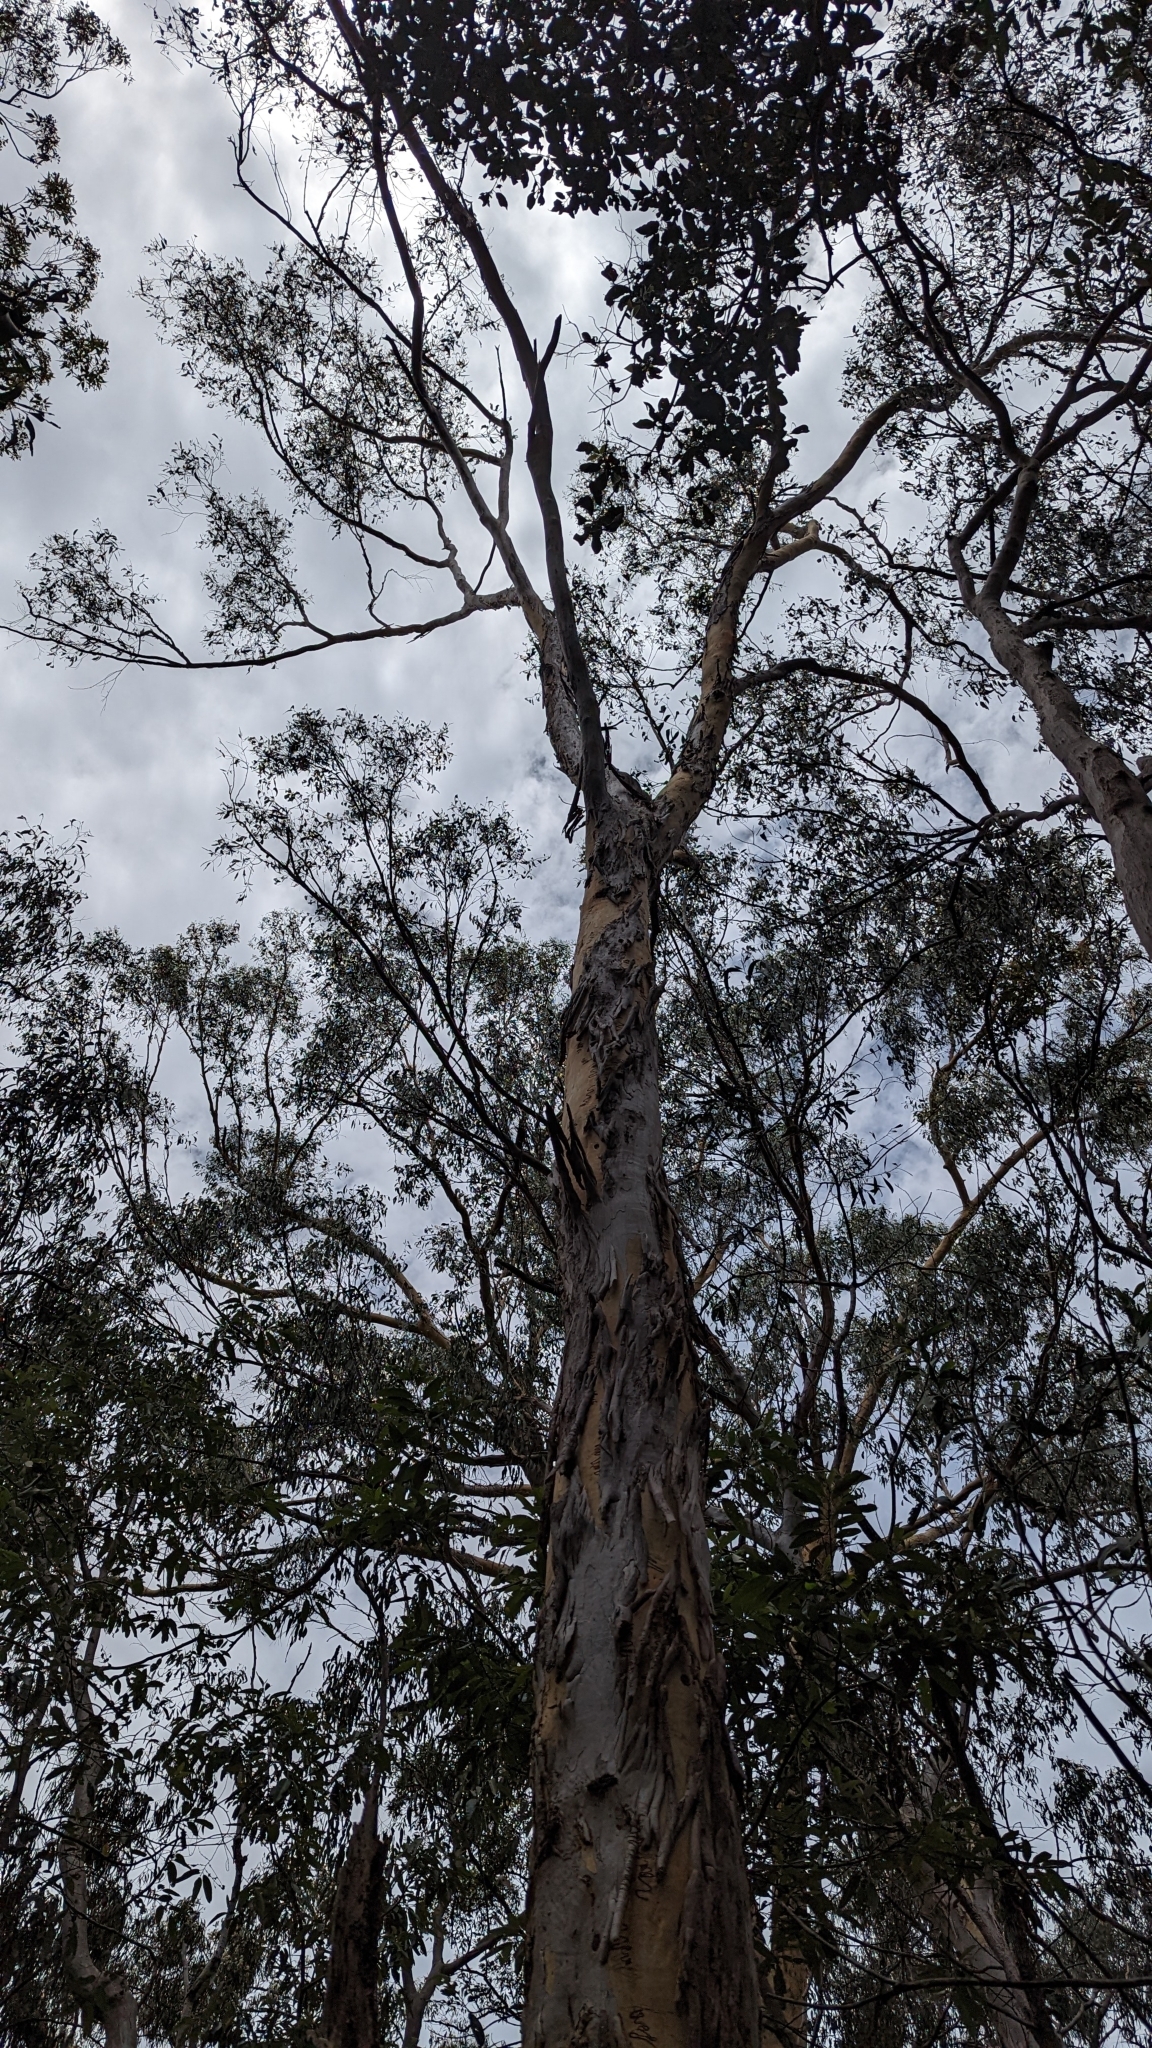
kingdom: Plantae
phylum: Tracheophyta
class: Magnoliopsida
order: Myrtales
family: Myrtaceae
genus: Eucalyptus
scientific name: Eucalyptus racemosa
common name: Scribbly gum
